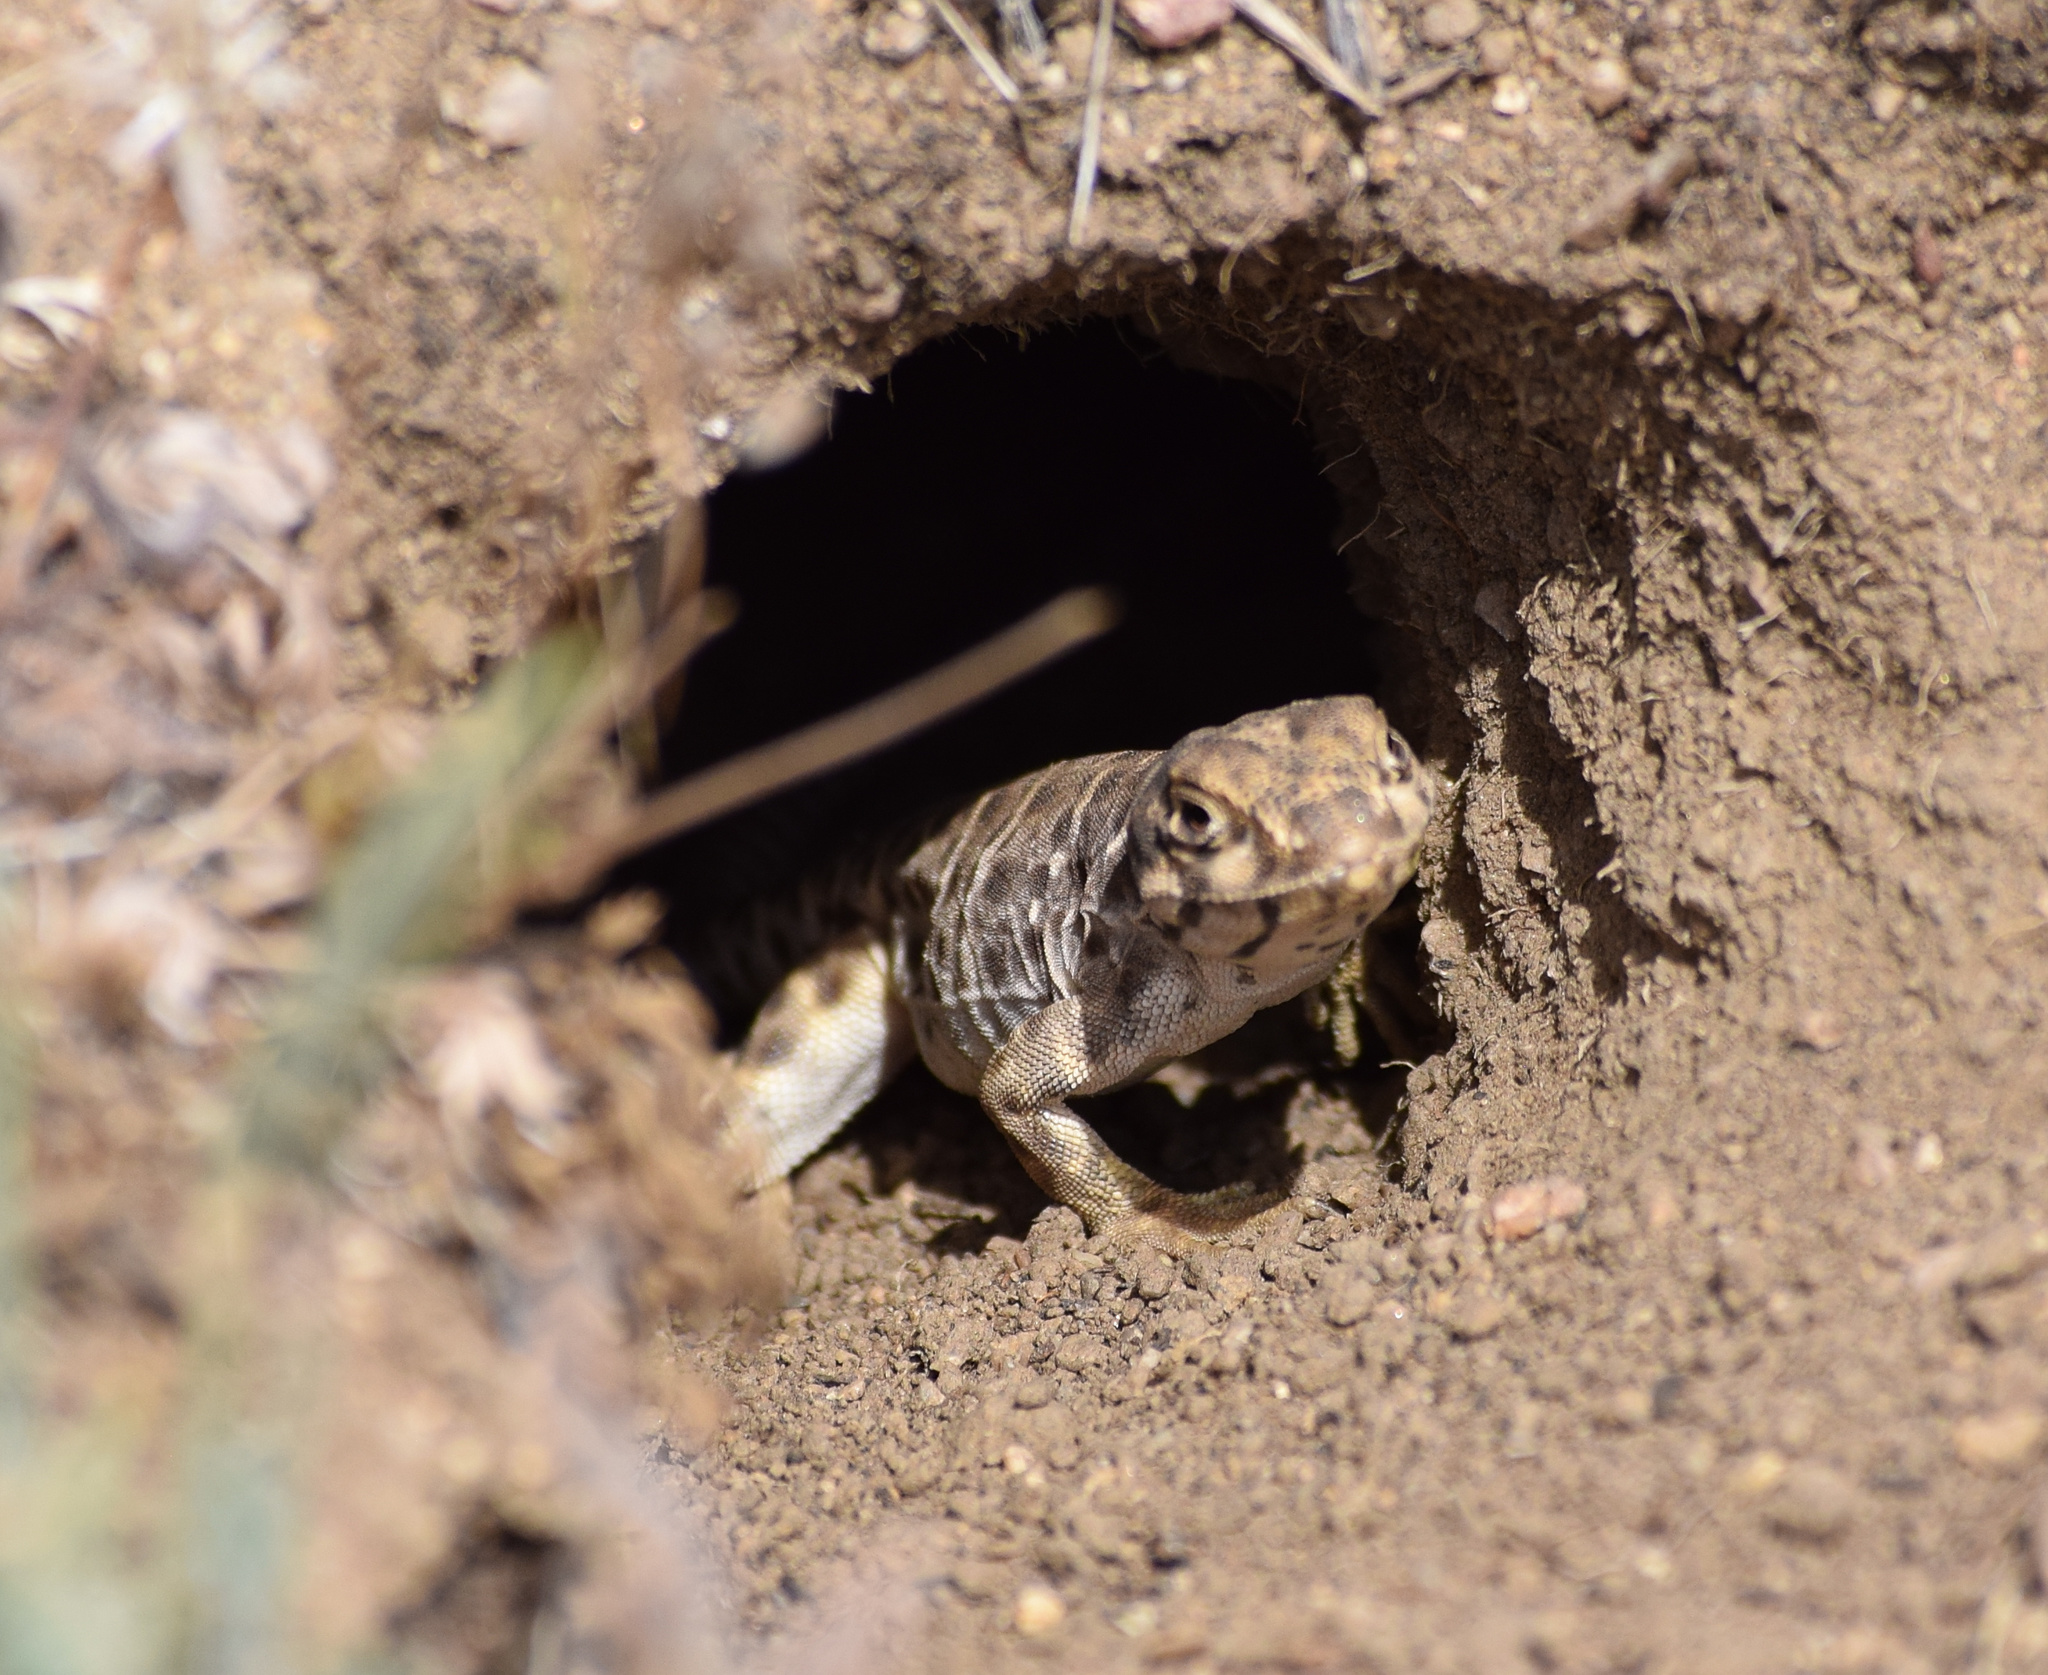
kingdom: Animalia
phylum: Chordata
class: Squamata
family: Crotaphytidae
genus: Gambelia
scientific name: Gambelia wislizenii
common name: Longnose leopard lizard
